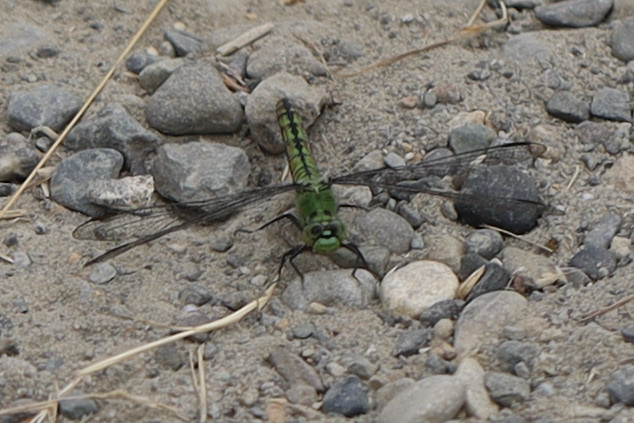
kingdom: Animalia
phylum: Arthropoda
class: Insecta
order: Odonata
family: Libellulidae
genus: Erythemis
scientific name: Erythemis collocata
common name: Western pondhawk
